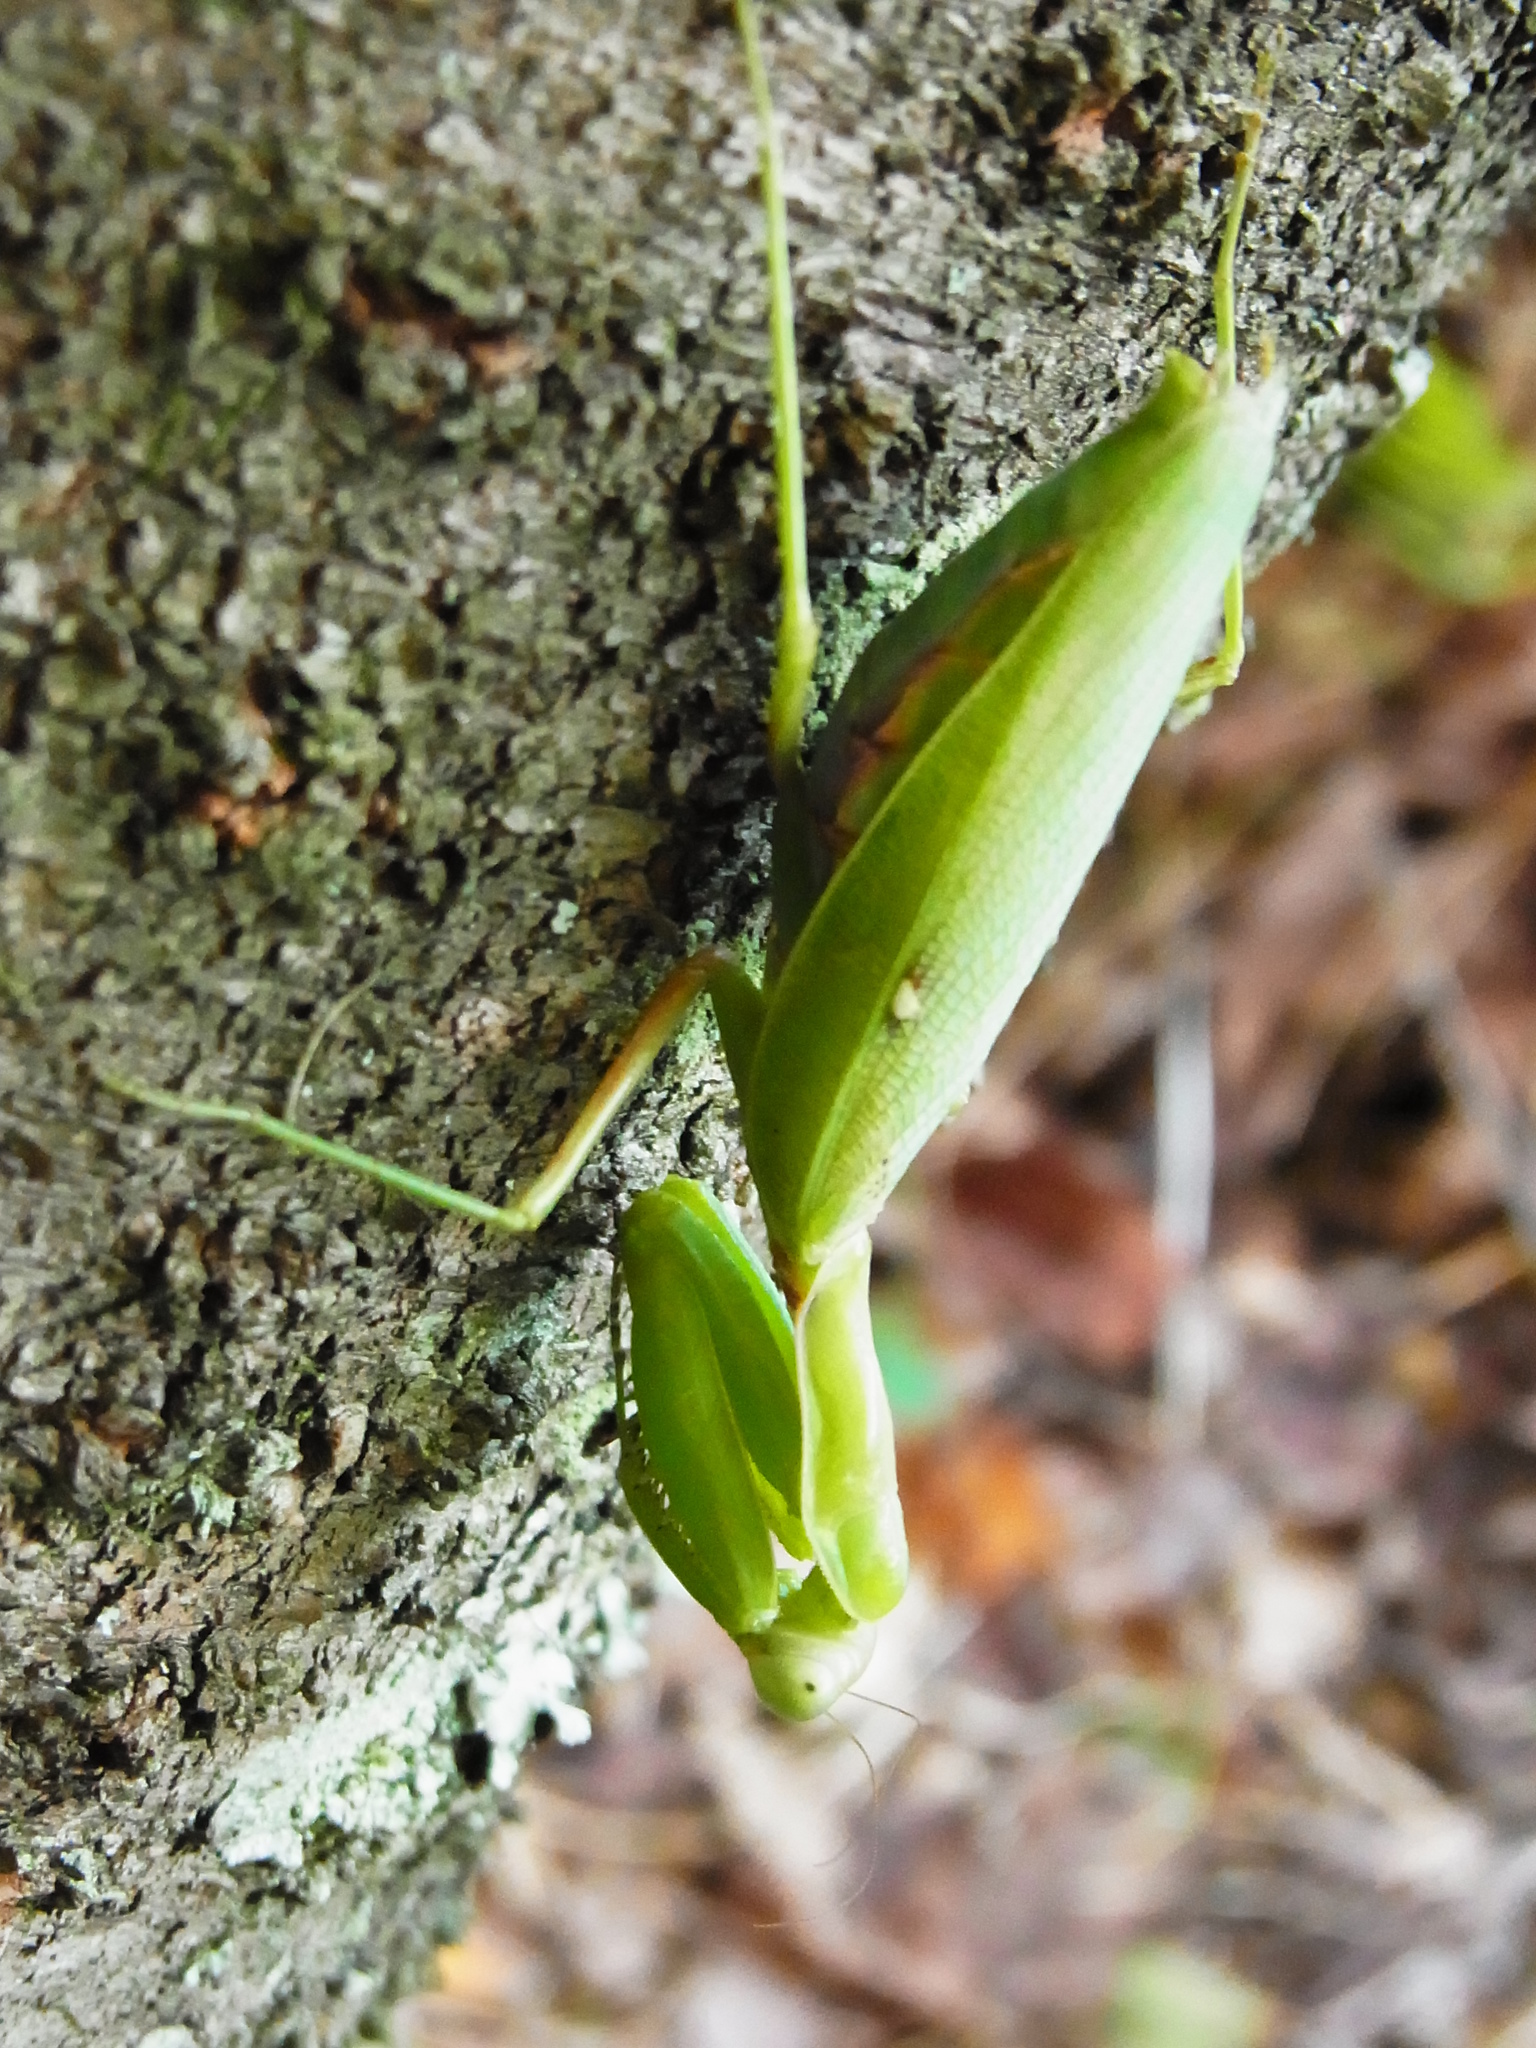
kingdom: Animalia
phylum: Arthropoda
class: Insecta
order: Mantodea
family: Mantidae
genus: Hierodula
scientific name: Hierodula patellifera
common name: Asian mantis
